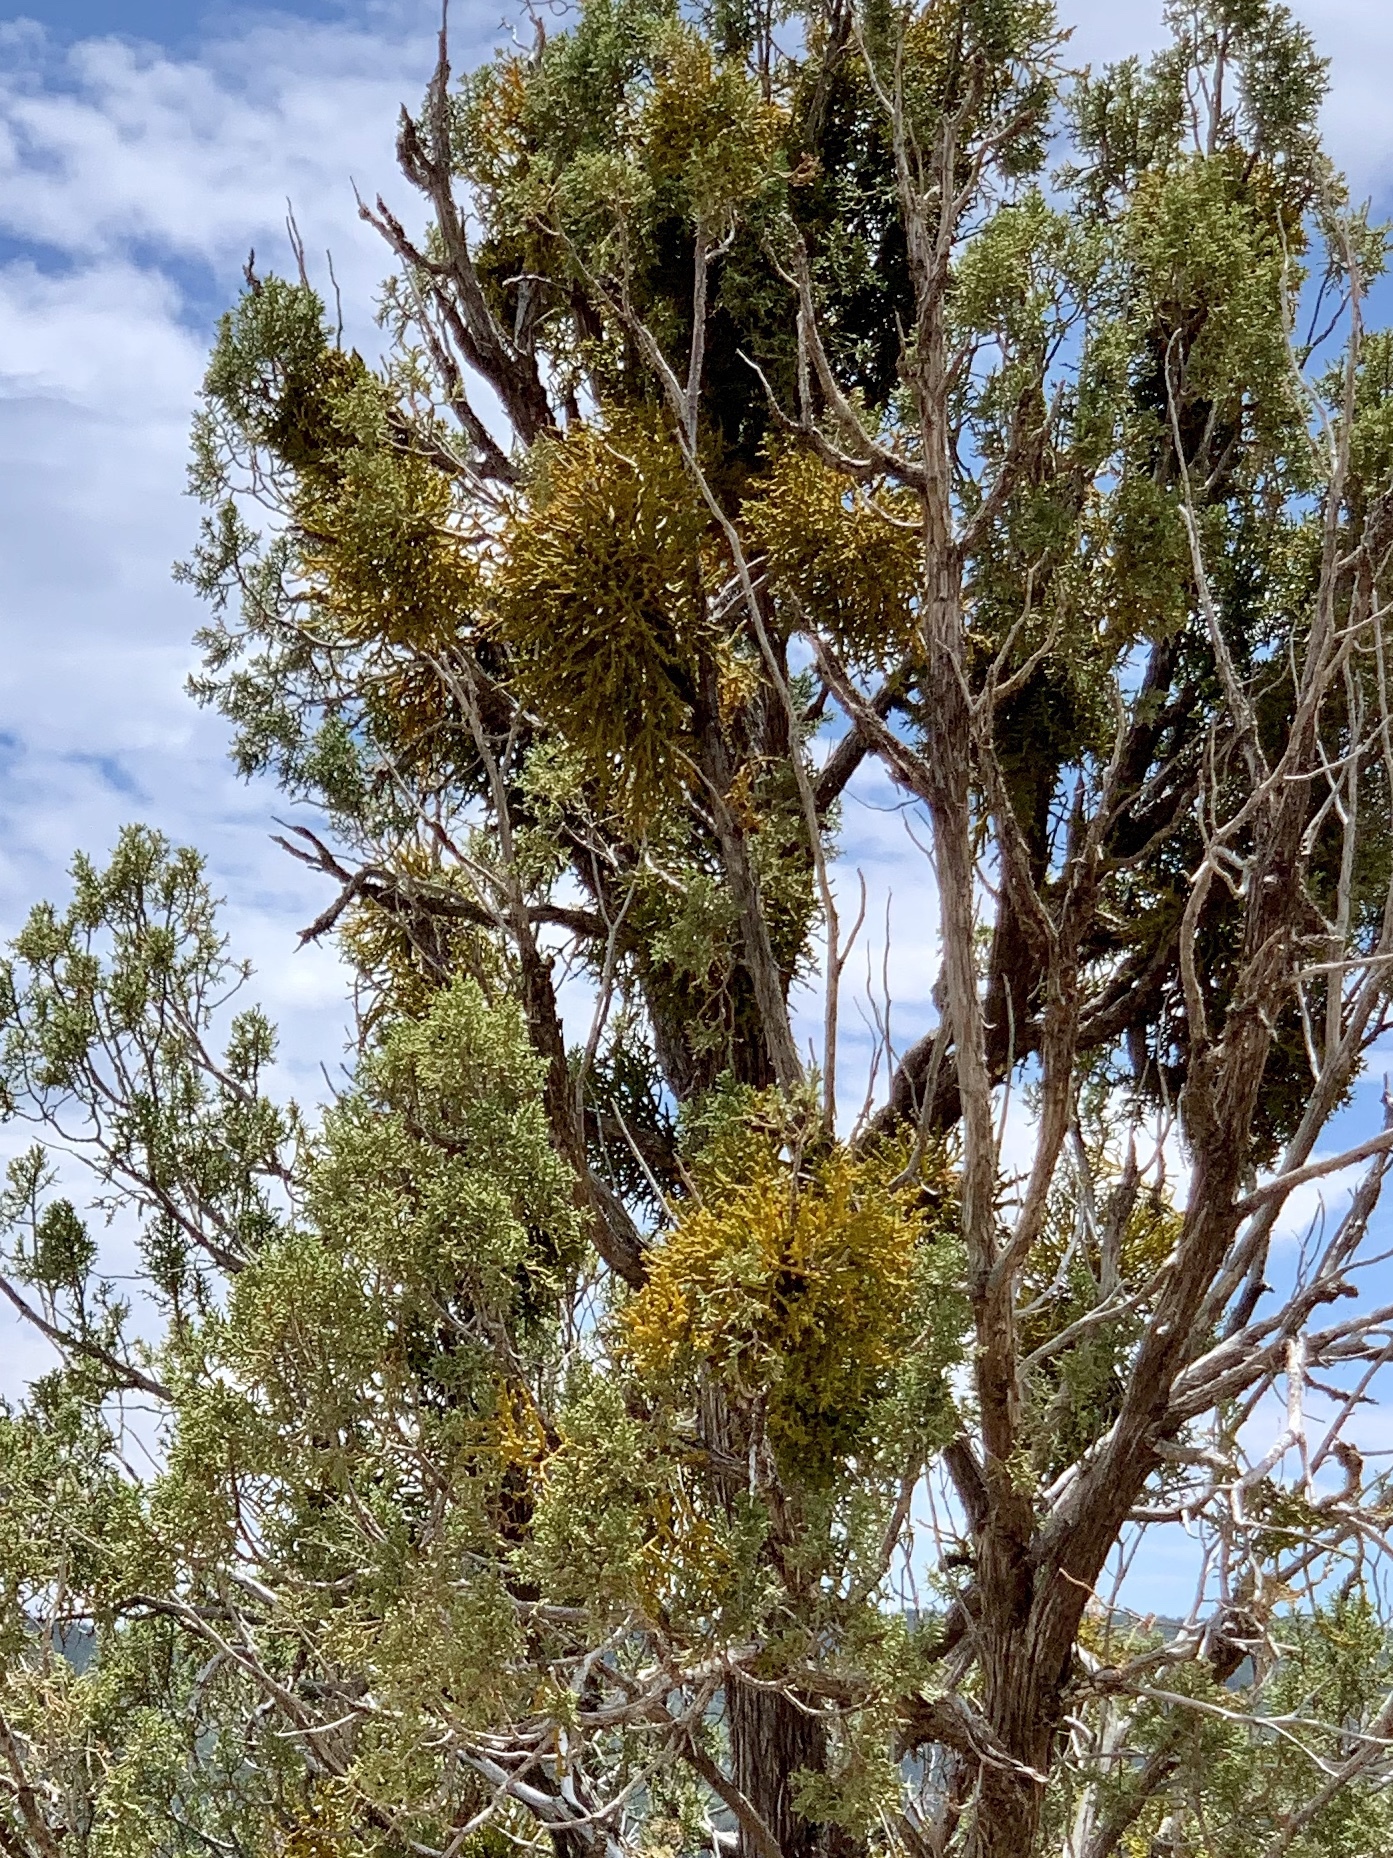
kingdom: Plantae
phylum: Tracheophyta
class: Magnoliopsida
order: Santalales
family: Viscaceae
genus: Phoradendron
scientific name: Phoradendron juniperinum
